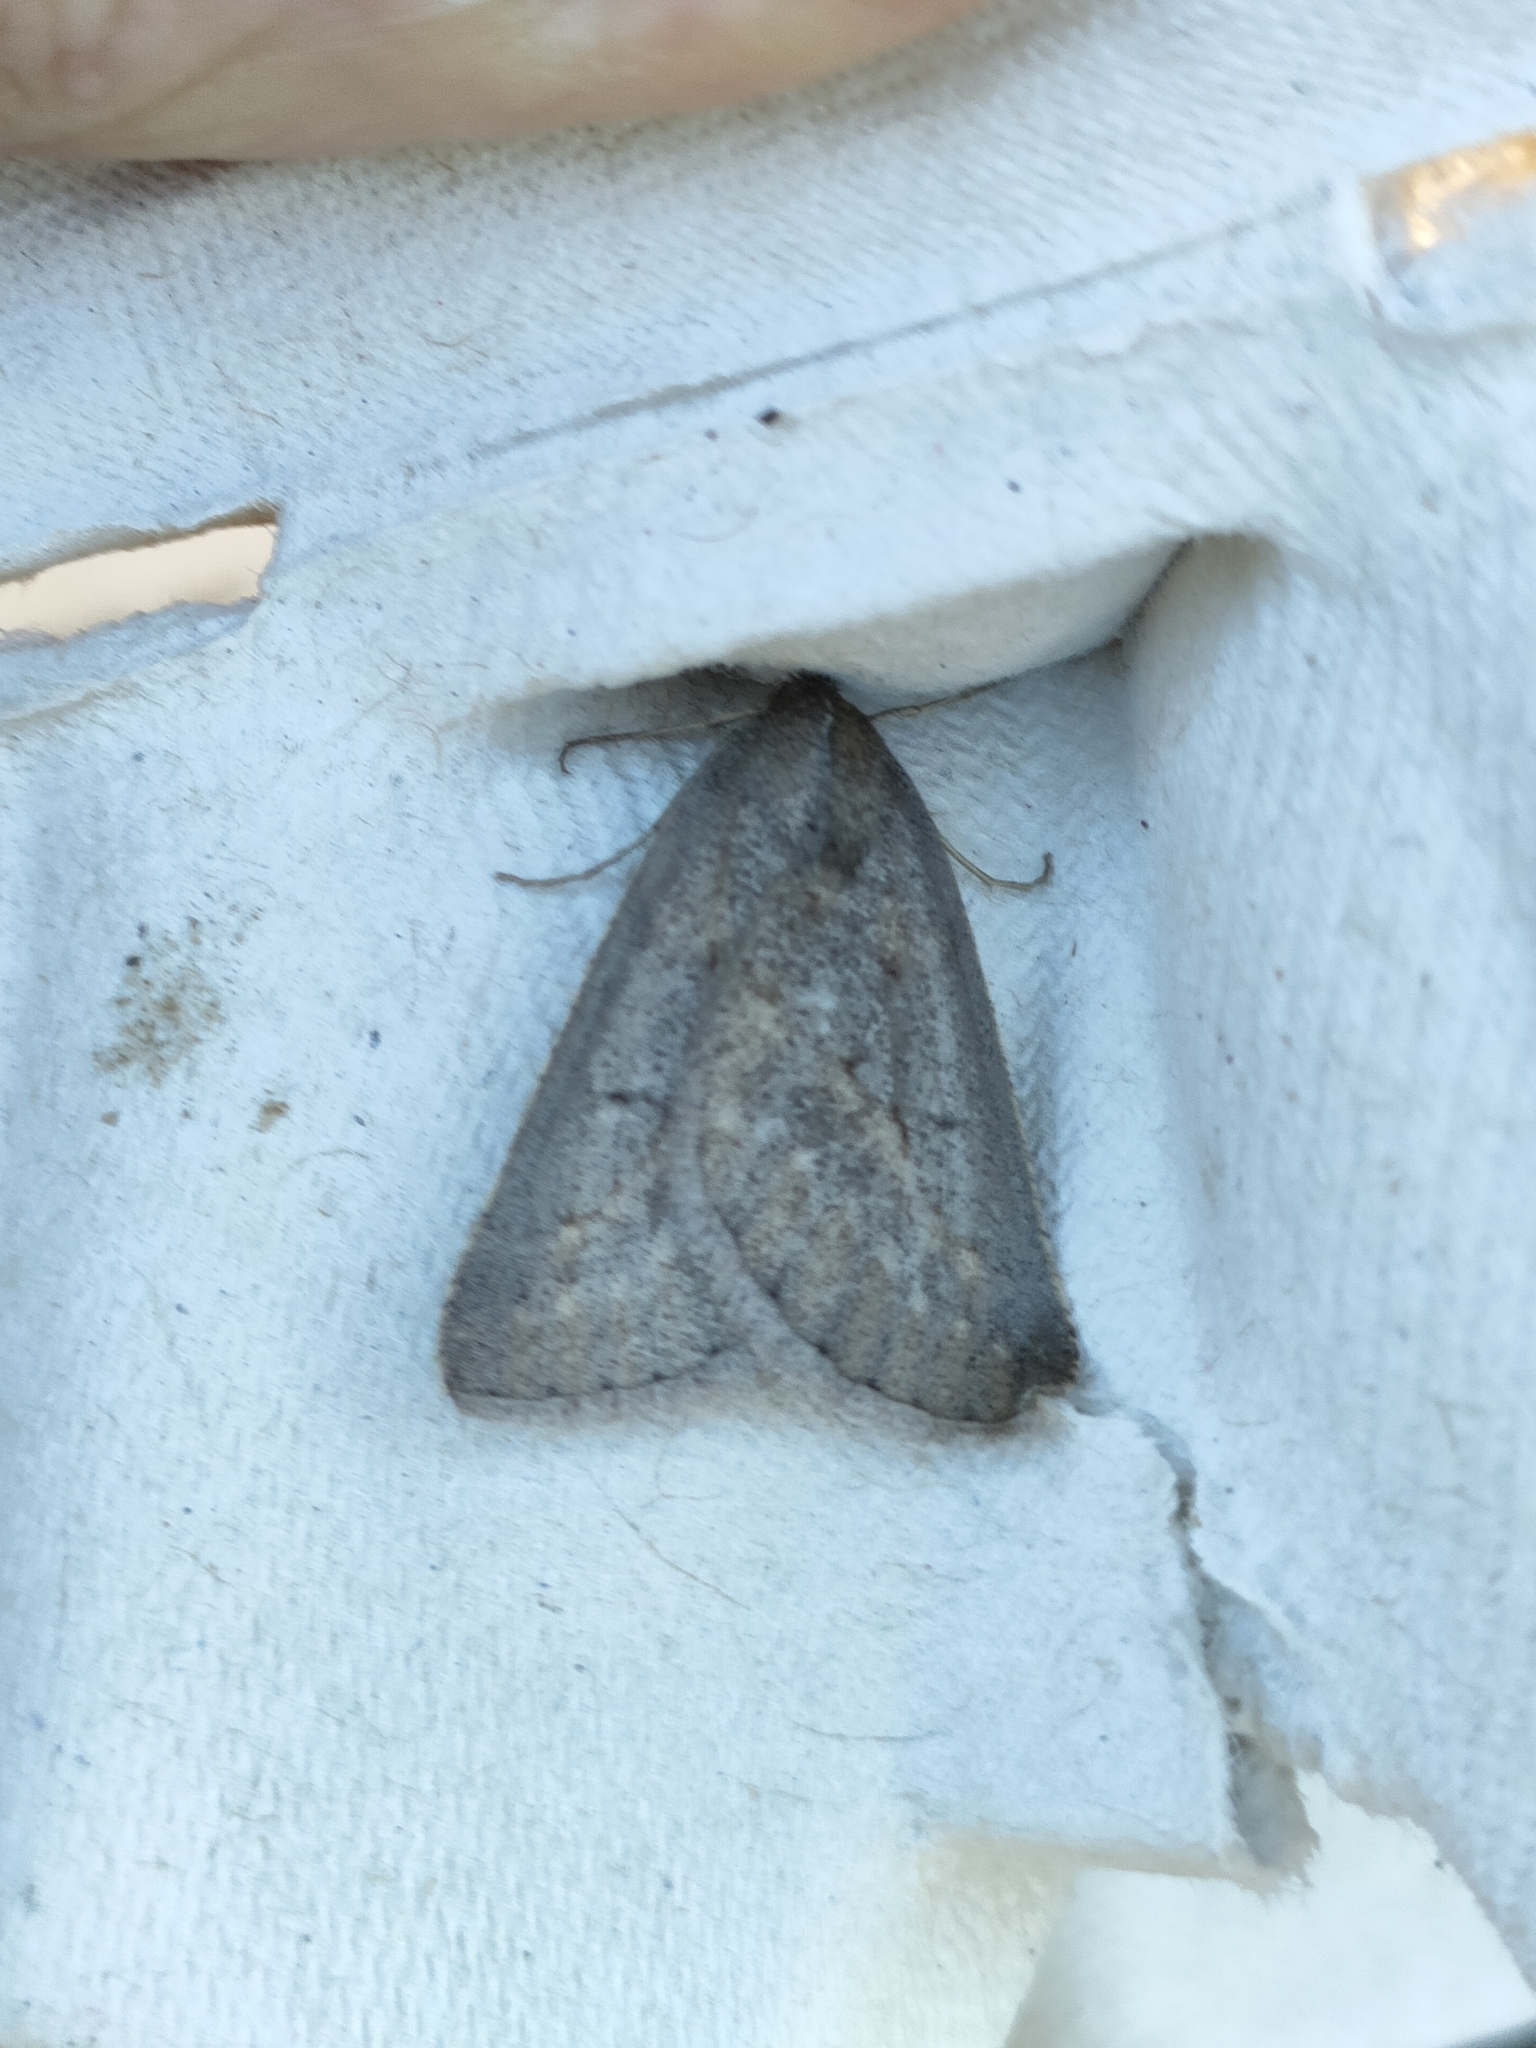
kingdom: Animalia
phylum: Arthropoda
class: Insecta
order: Lepidoptera
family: Geometridae
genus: Chemerina
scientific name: Chemerina caliginearia
